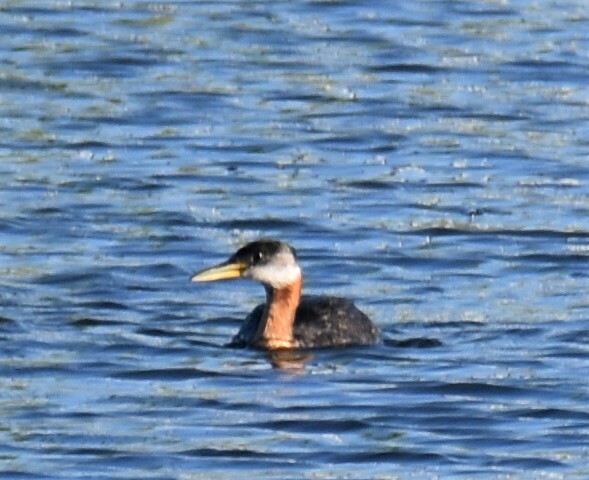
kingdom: Animalia
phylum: Chordata
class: Aves
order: Podicipediformes
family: Podicipedidae
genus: Podiceps
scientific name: Podiceps grisegena
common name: Red-necked grebe
